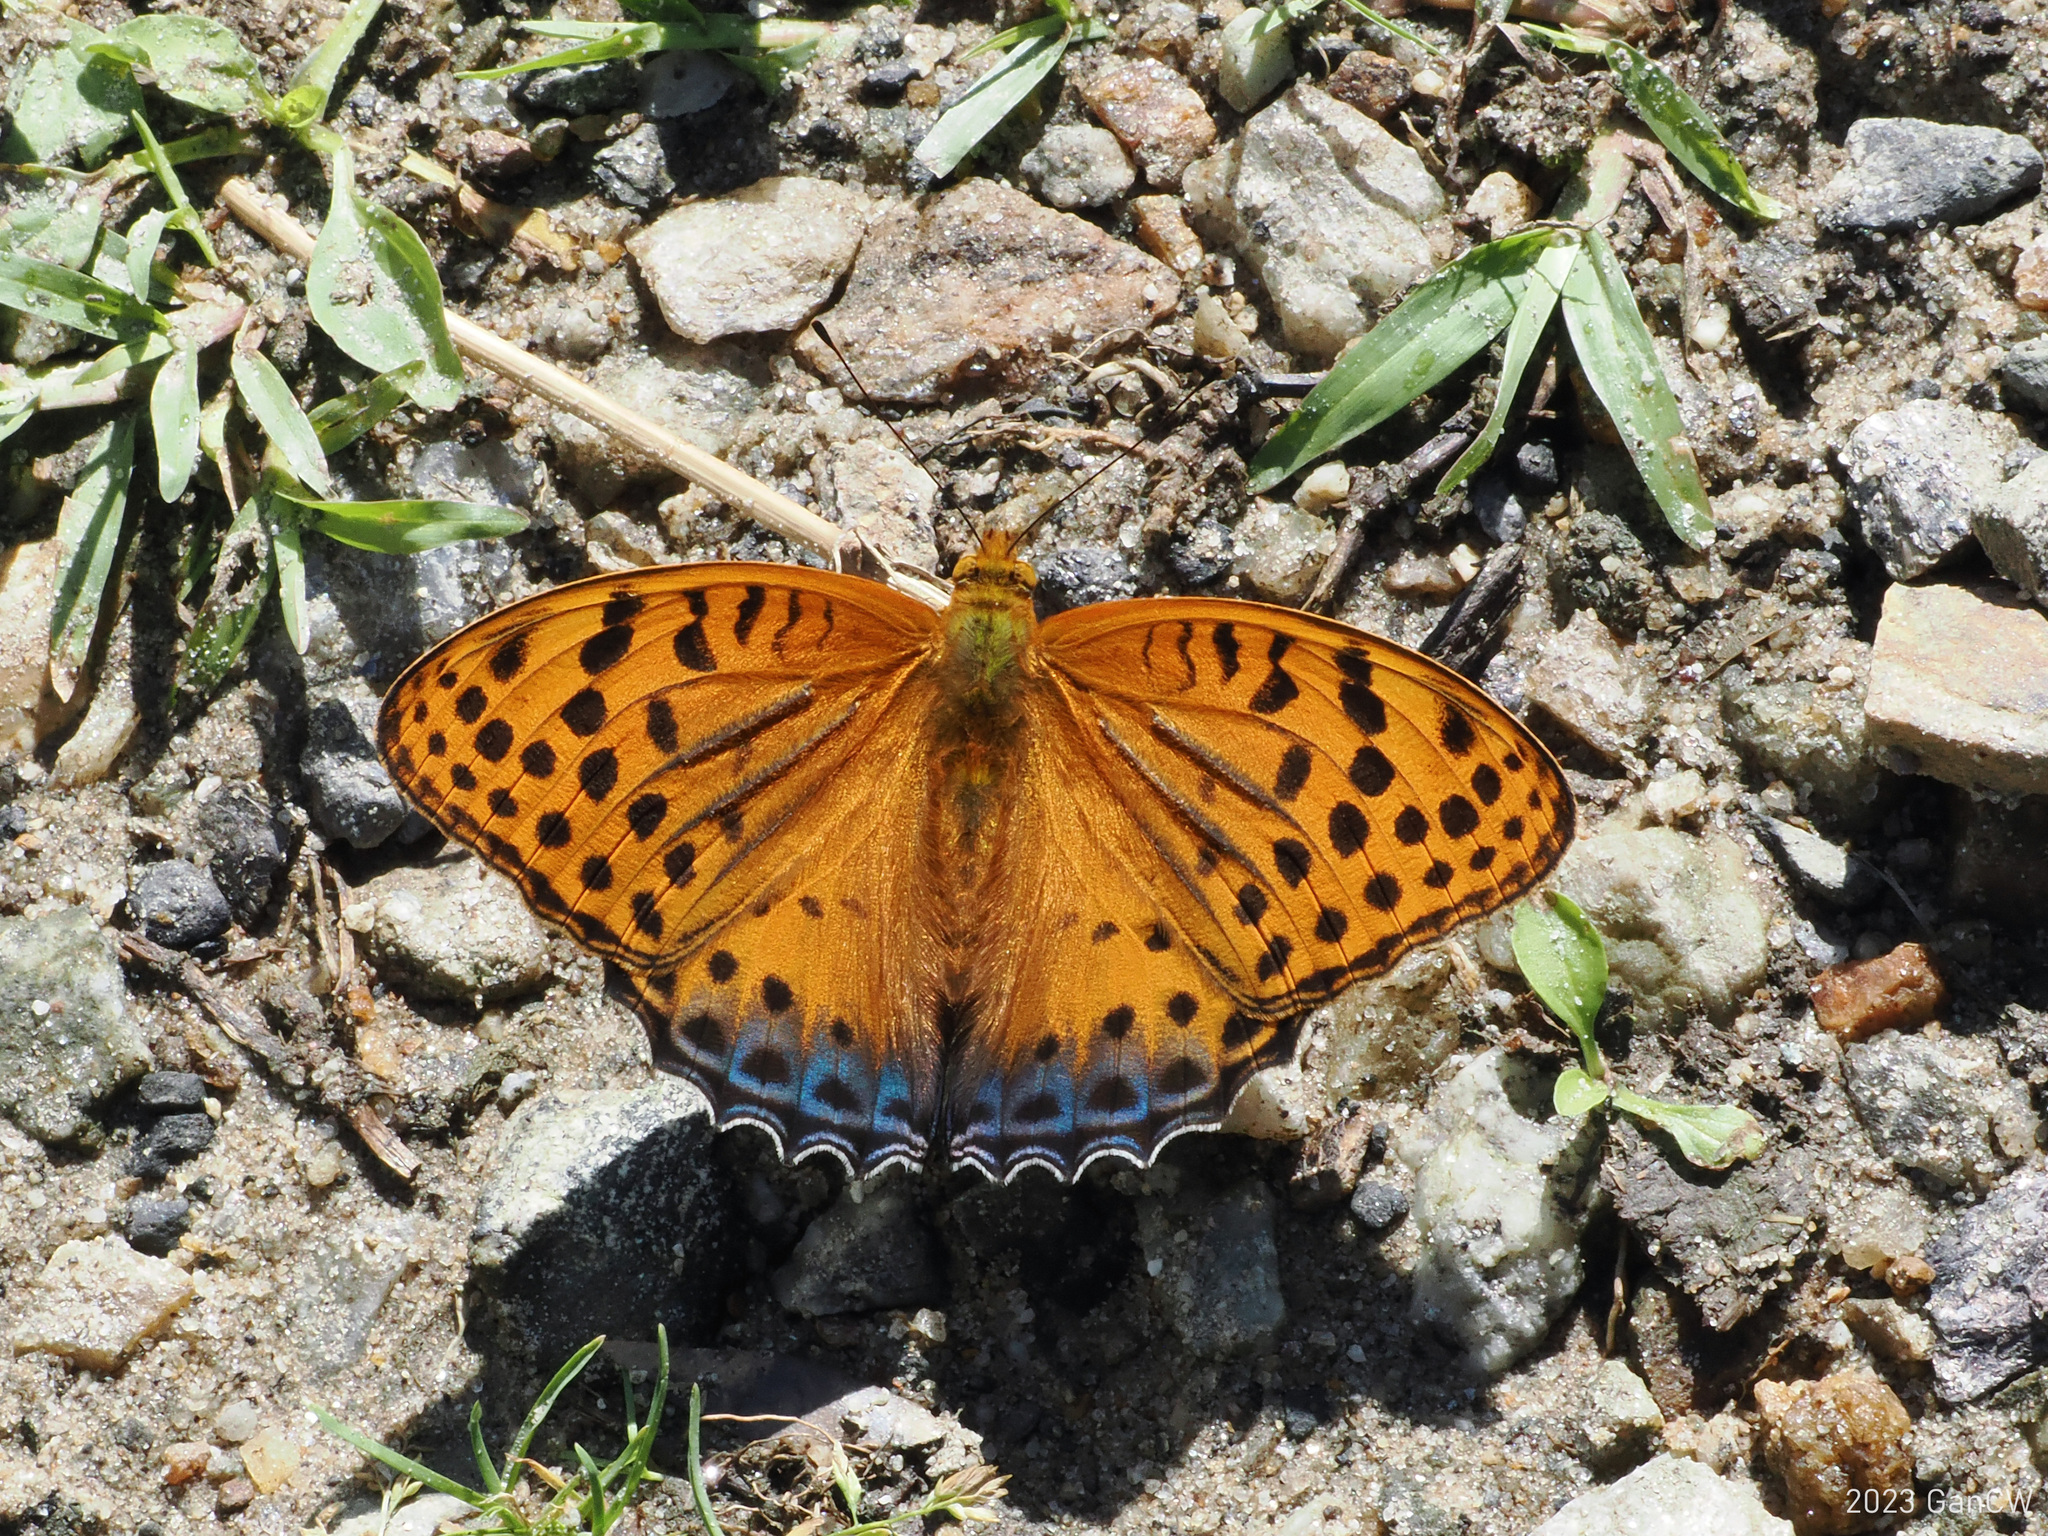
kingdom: Animalia
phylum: Arthropoda
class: Insecta
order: Lepidoptera
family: Nymphalidae
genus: Childrena
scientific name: Childrena childreni
